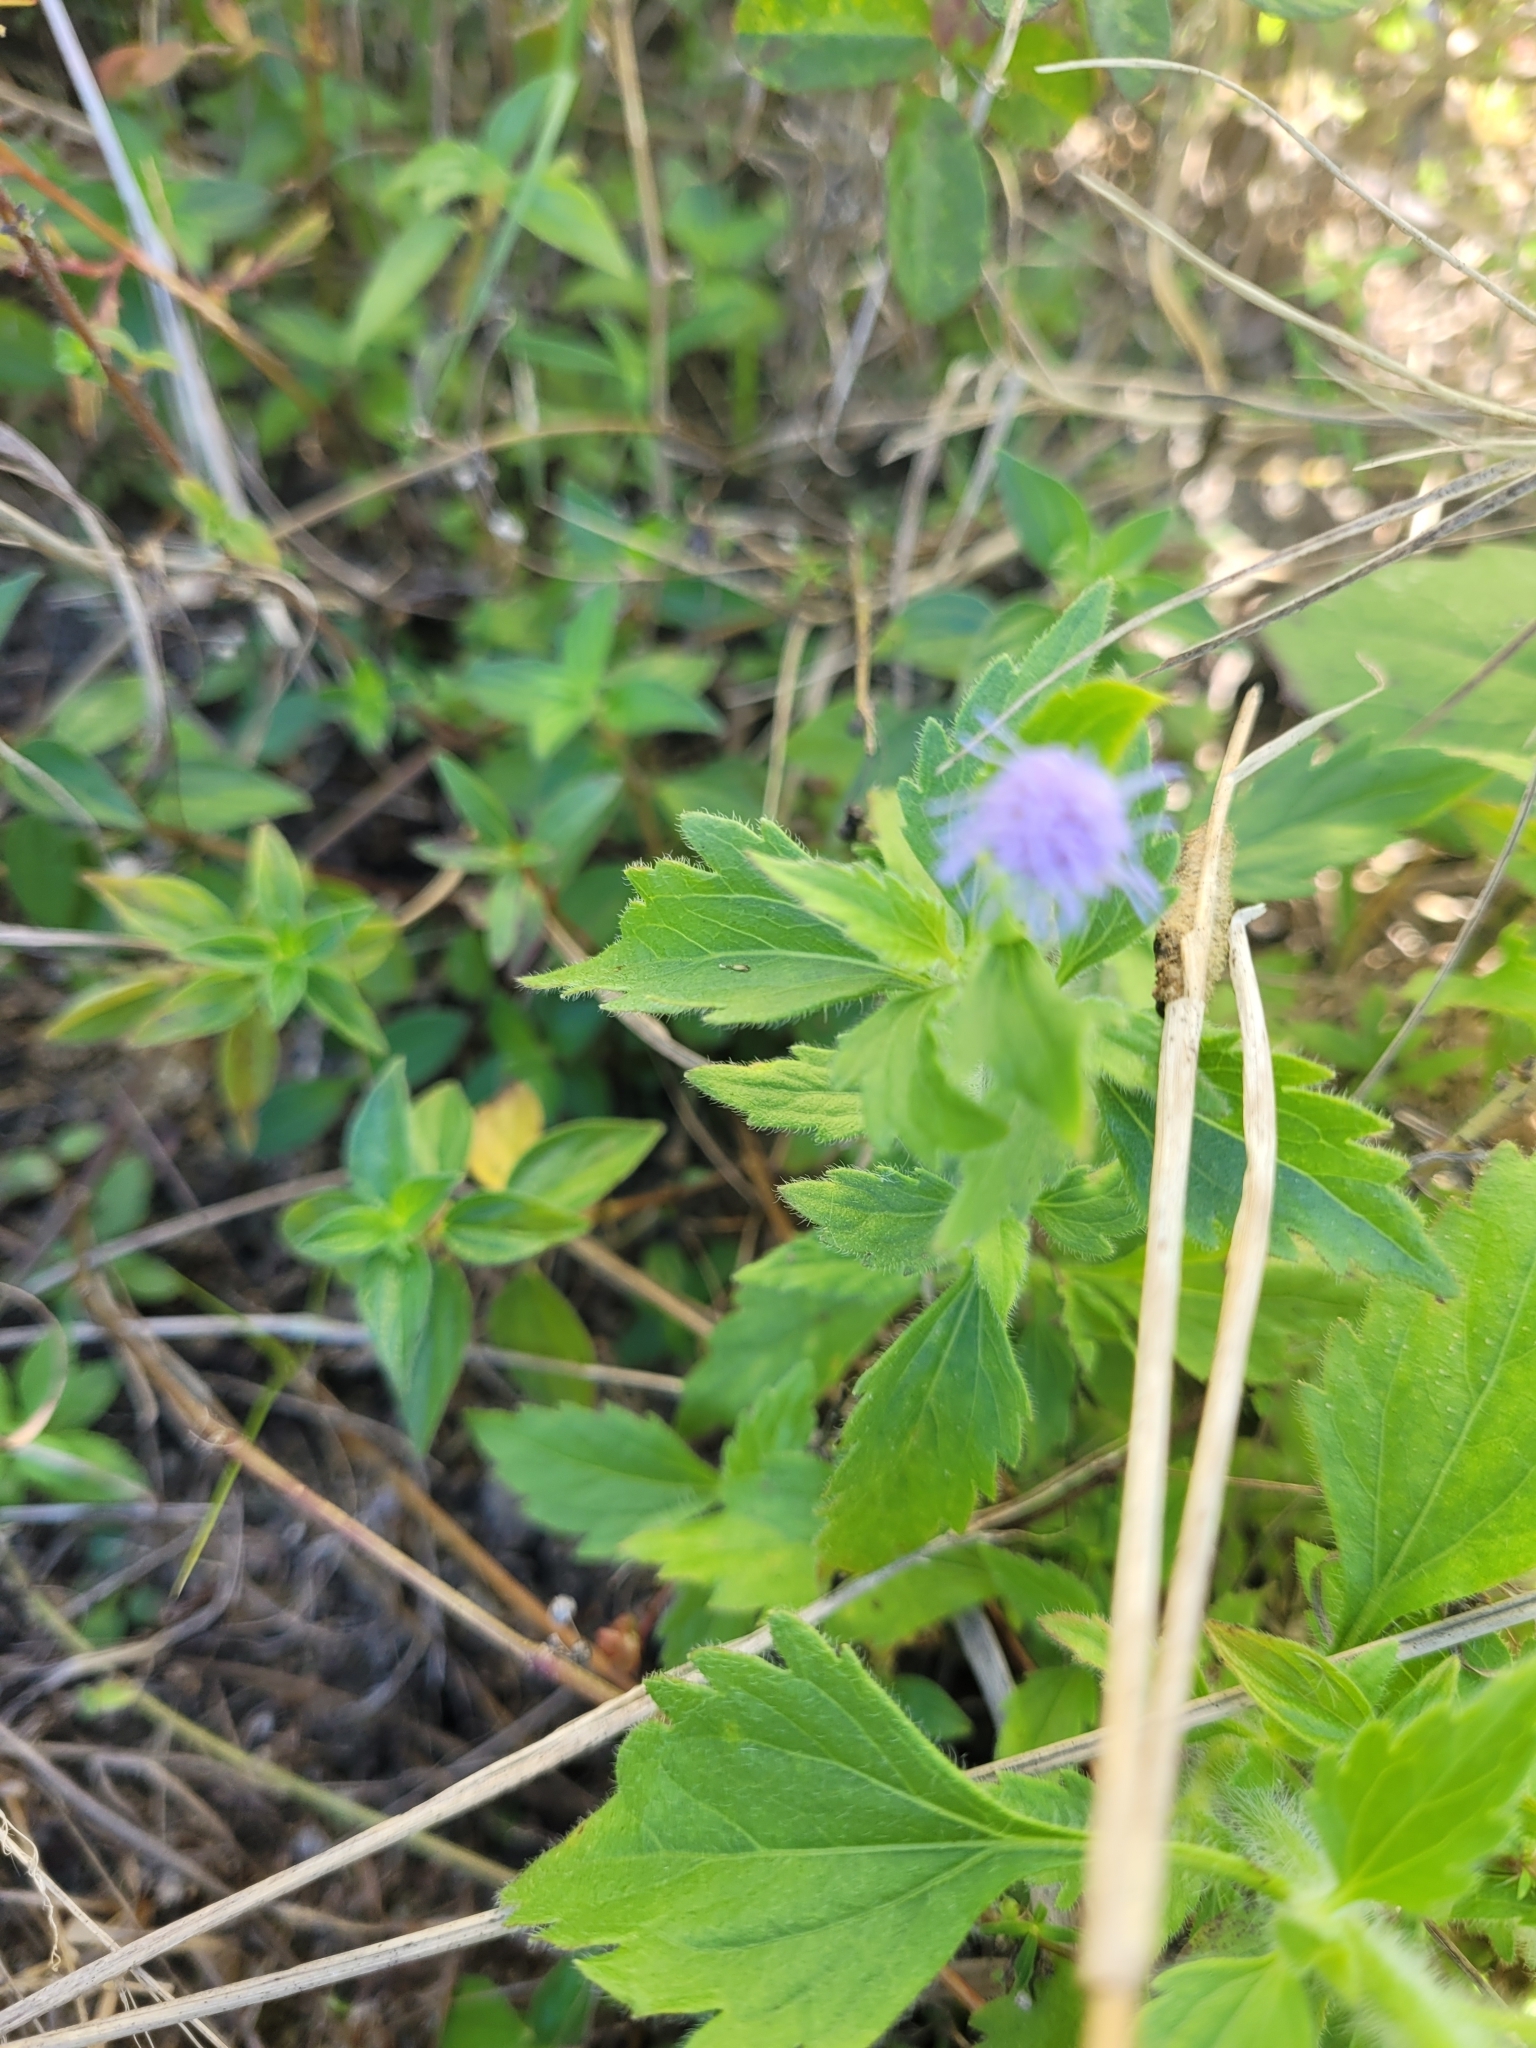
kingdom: Plantae
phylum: Tracheophyta
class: Magnoliopsida
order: Asterales
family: Asteraceae
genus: Praxelis
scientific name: Praxelis clematidea
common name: Praxelis
